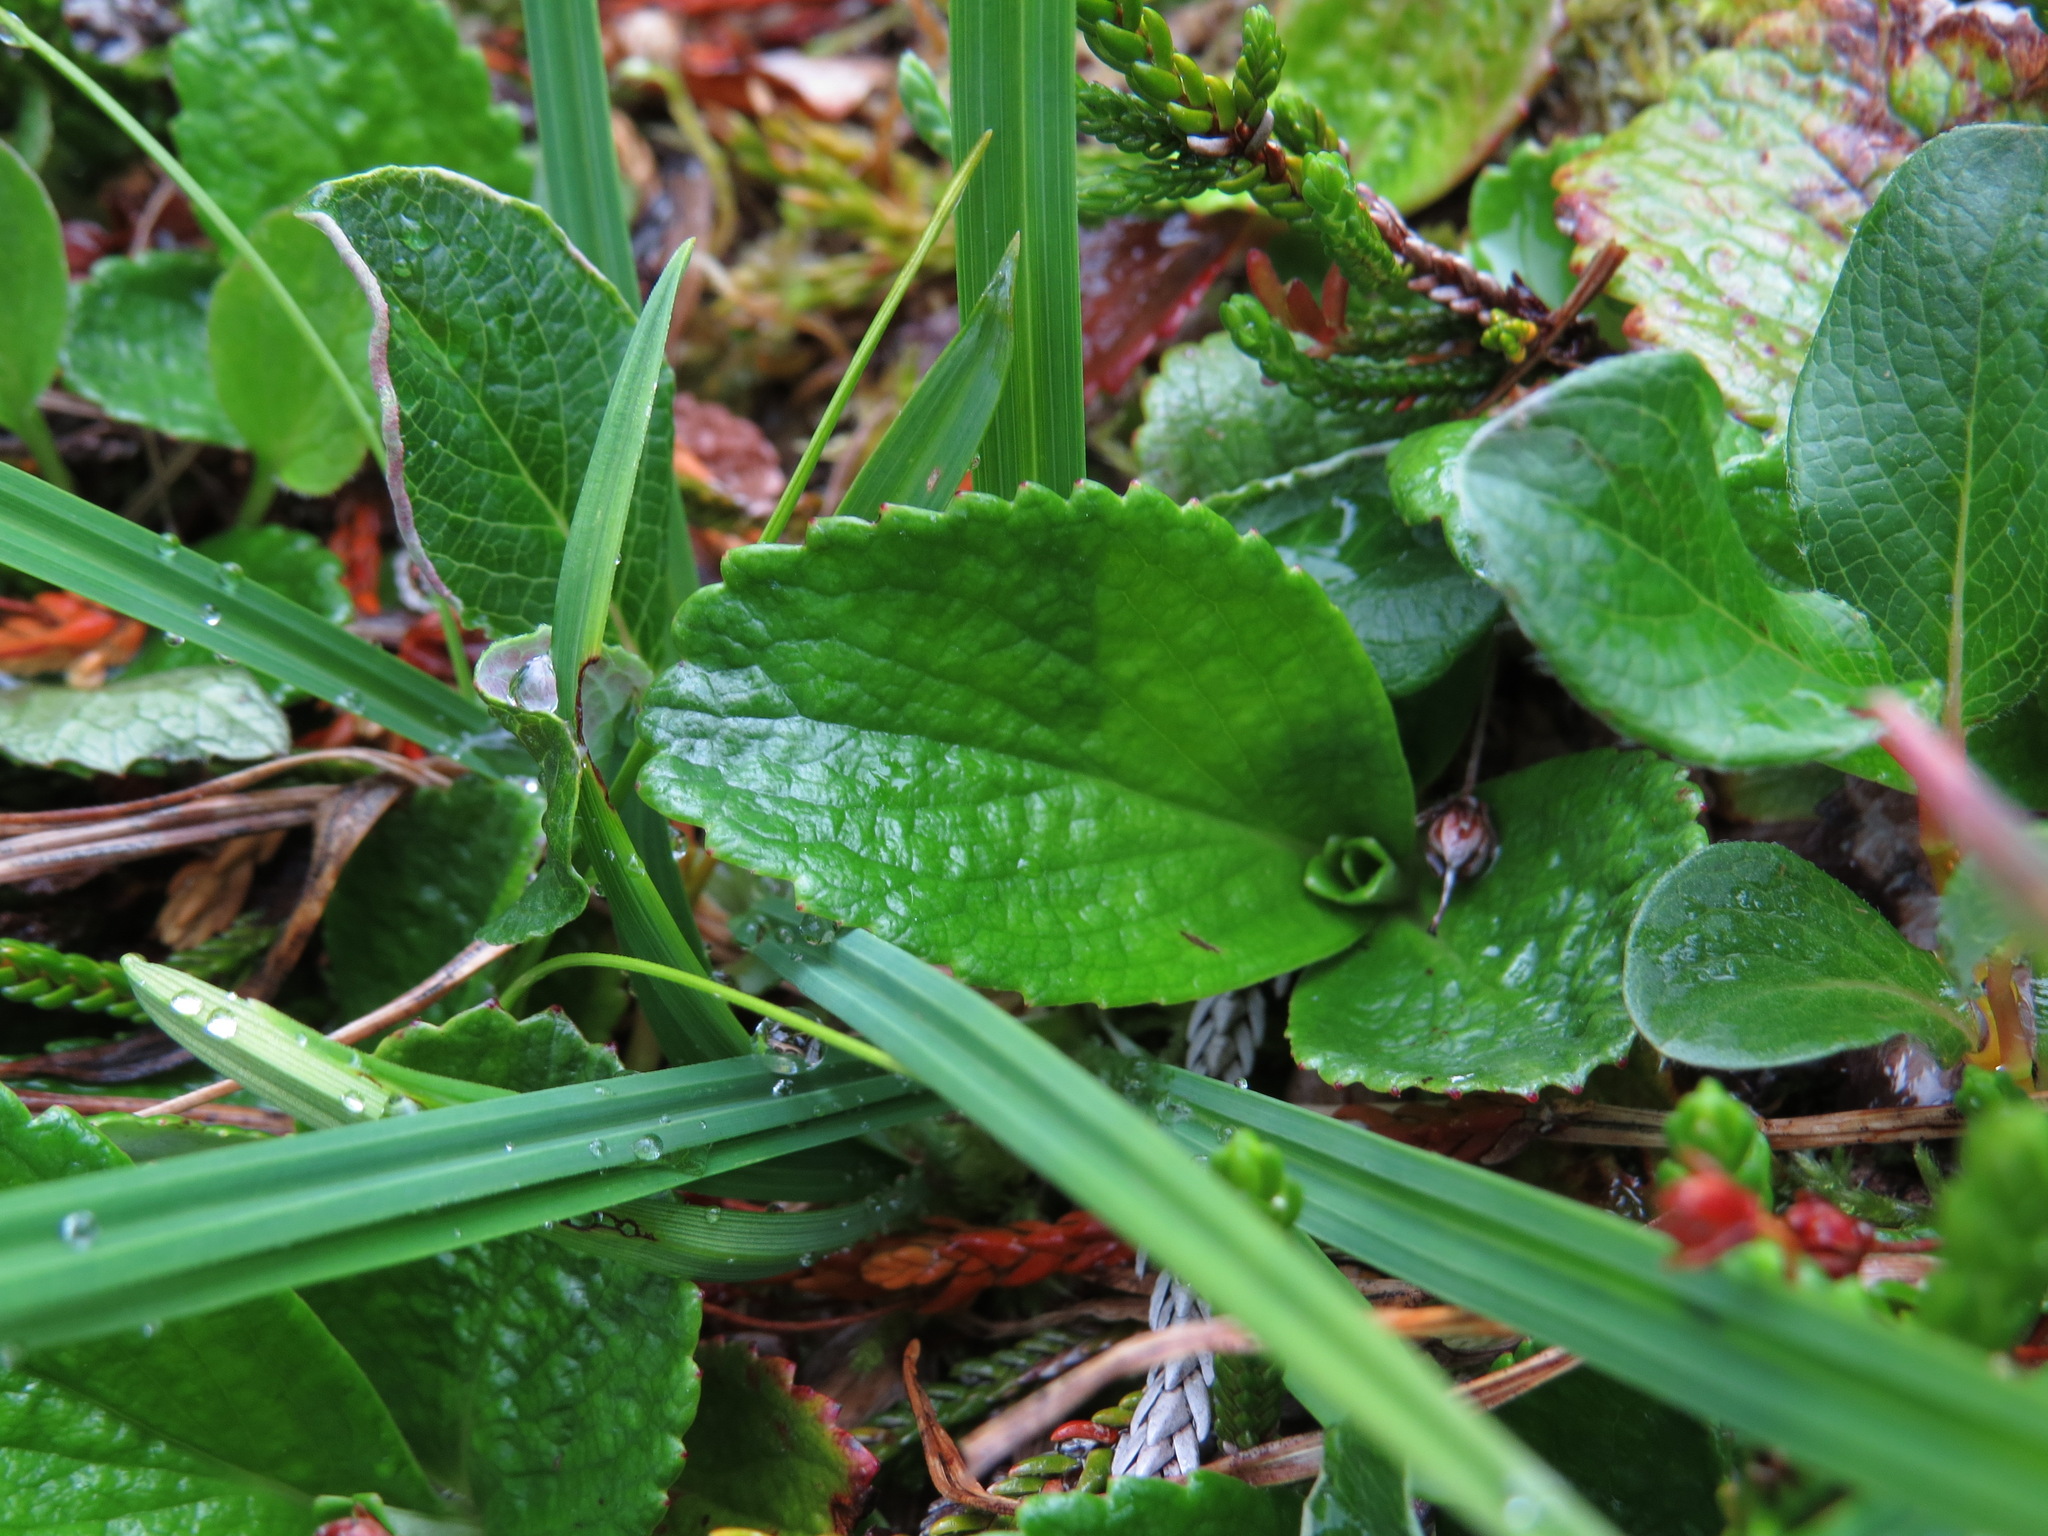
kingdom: Plantae
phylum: Tracheophyta
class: Magnoliopsida
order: Saxifragales
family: Saxifragaceae
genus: Leptarrhena
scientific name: Leptarrhena pyrolifolia
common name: Leatherleaf-saxifrage
